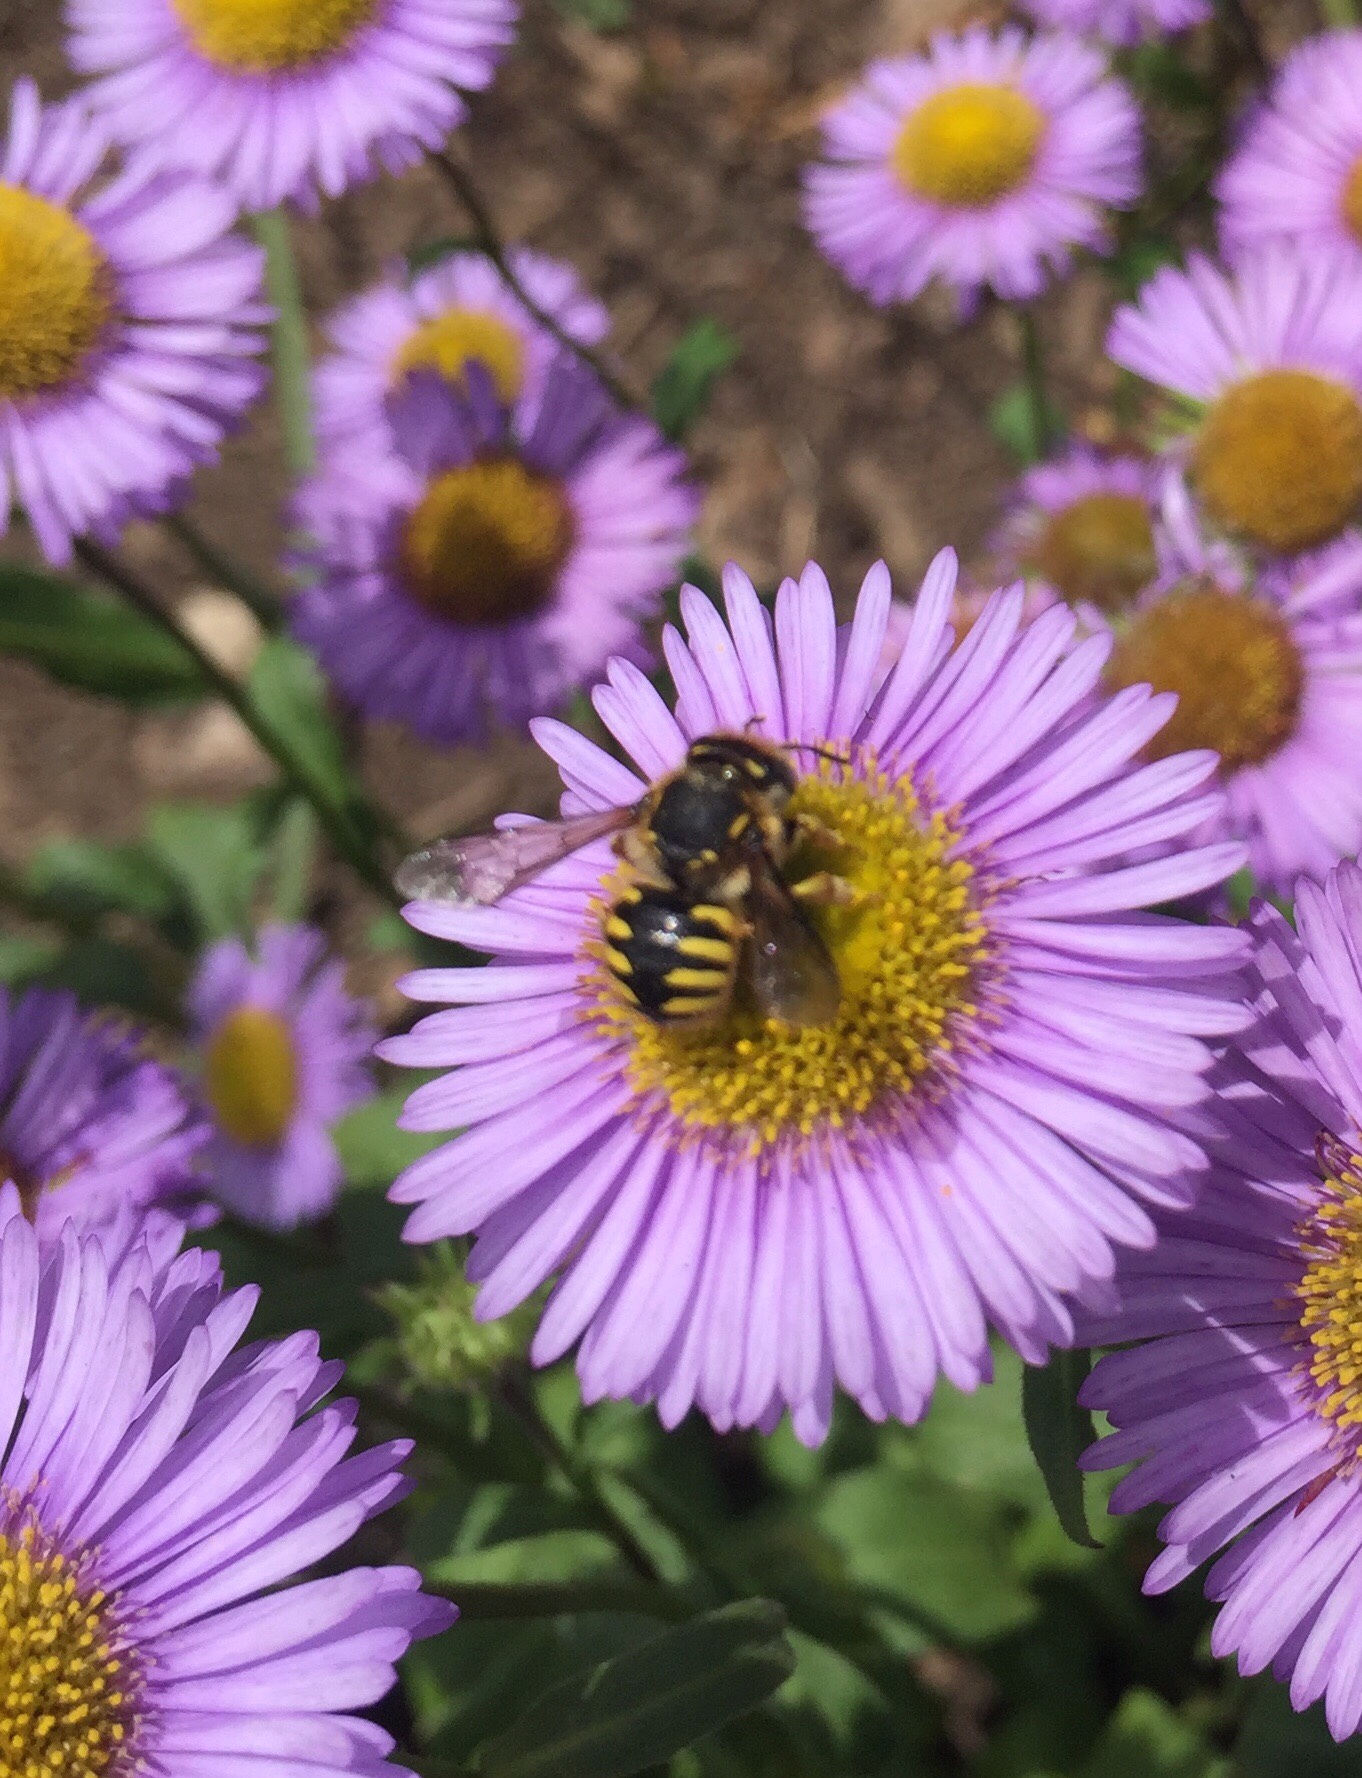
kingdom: Animalia
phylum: Arthropoda
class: Insecta
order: Hymenoptera
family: Megachilidae
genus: Anthidium
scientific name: Anthidium manicatum
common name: Wool carder bee
